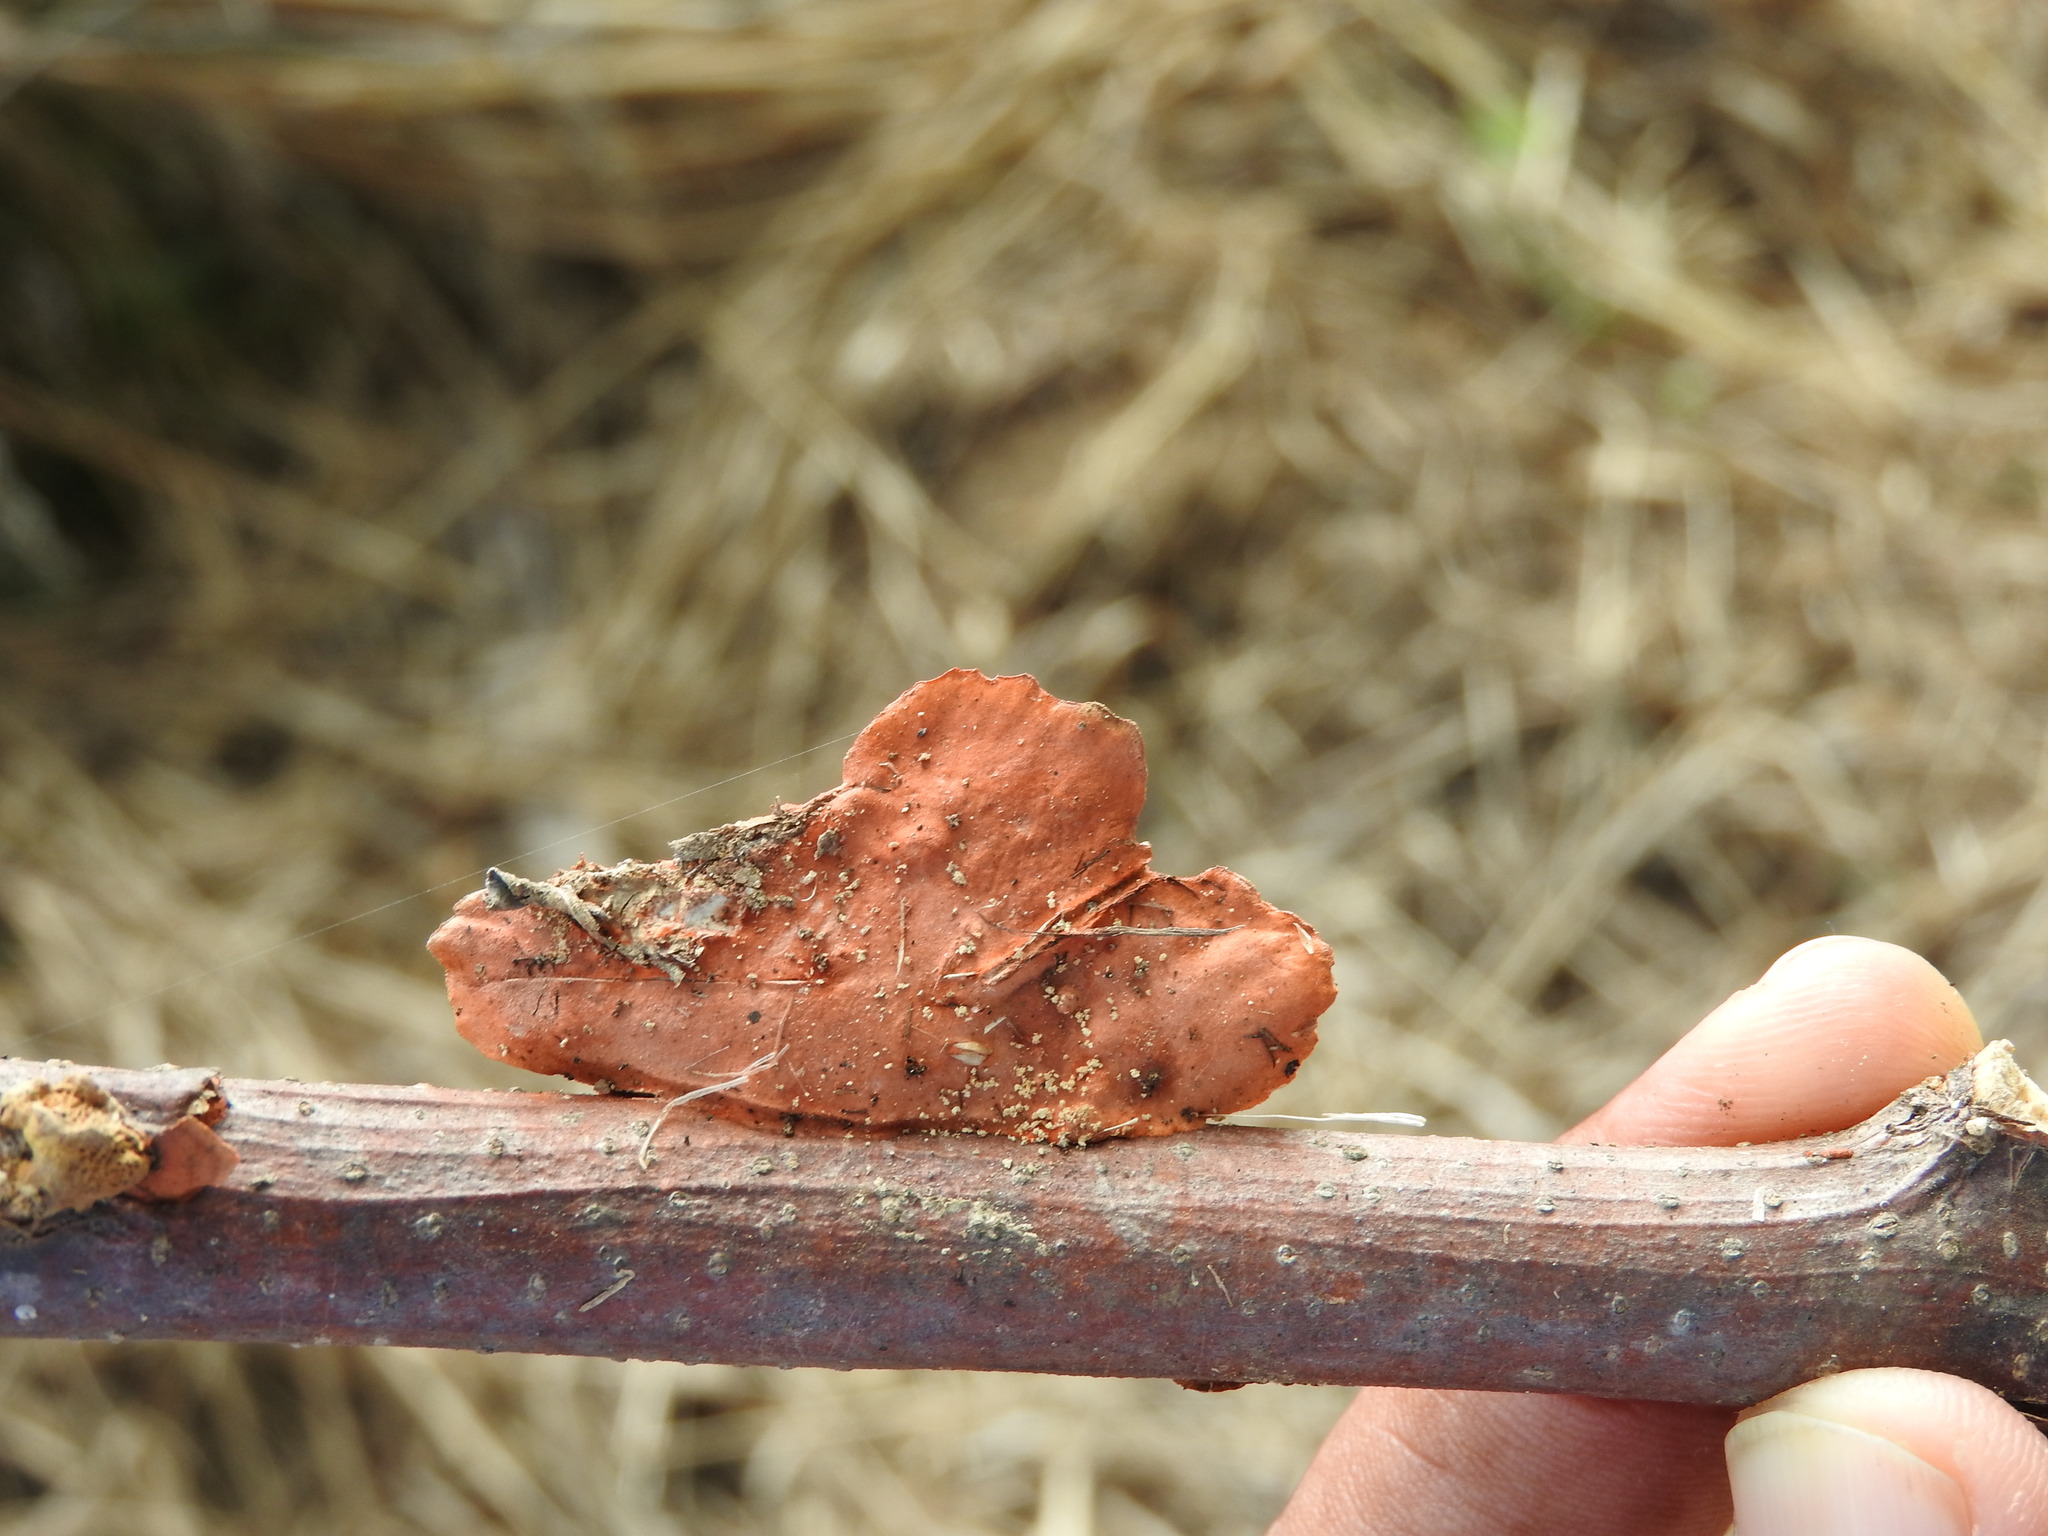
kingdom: Fungi
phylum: Basidiomycota
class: Agaricomycetes
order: Polyporales
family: Polyporaceae
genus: Trametes
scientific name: Trametes
